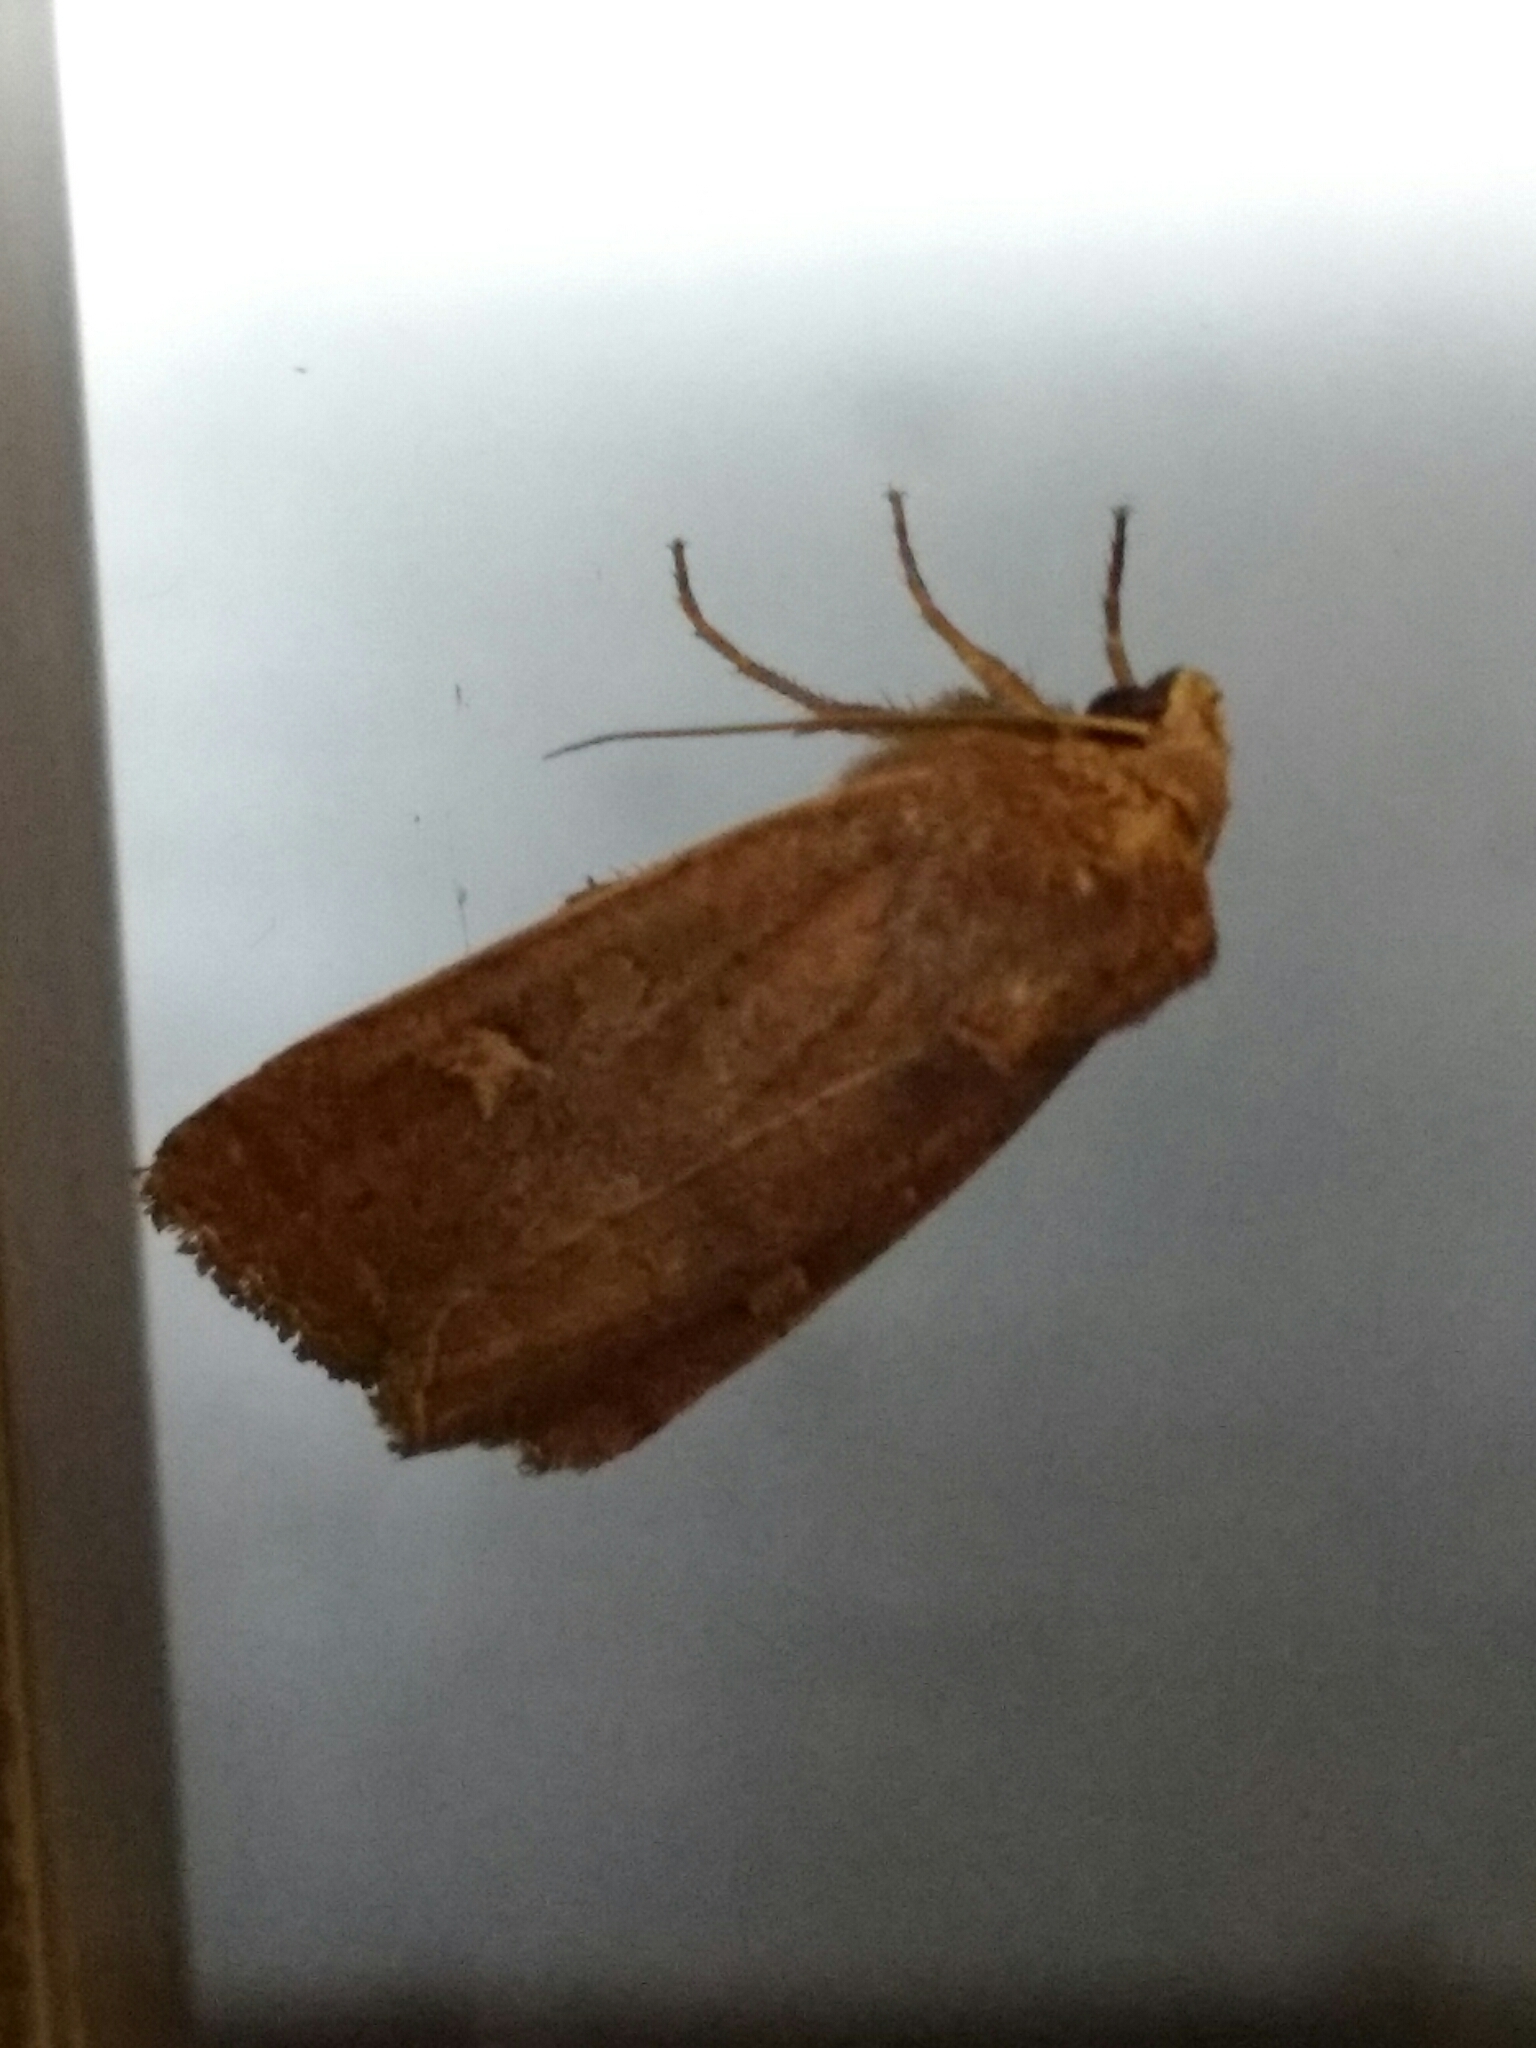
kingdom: Animalia
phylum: Arthropoda
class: Insecta
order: Lepidoptera
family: Noctuidae
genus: Xestia
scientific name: Xestia xanthographa
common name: Square-spot rustic
